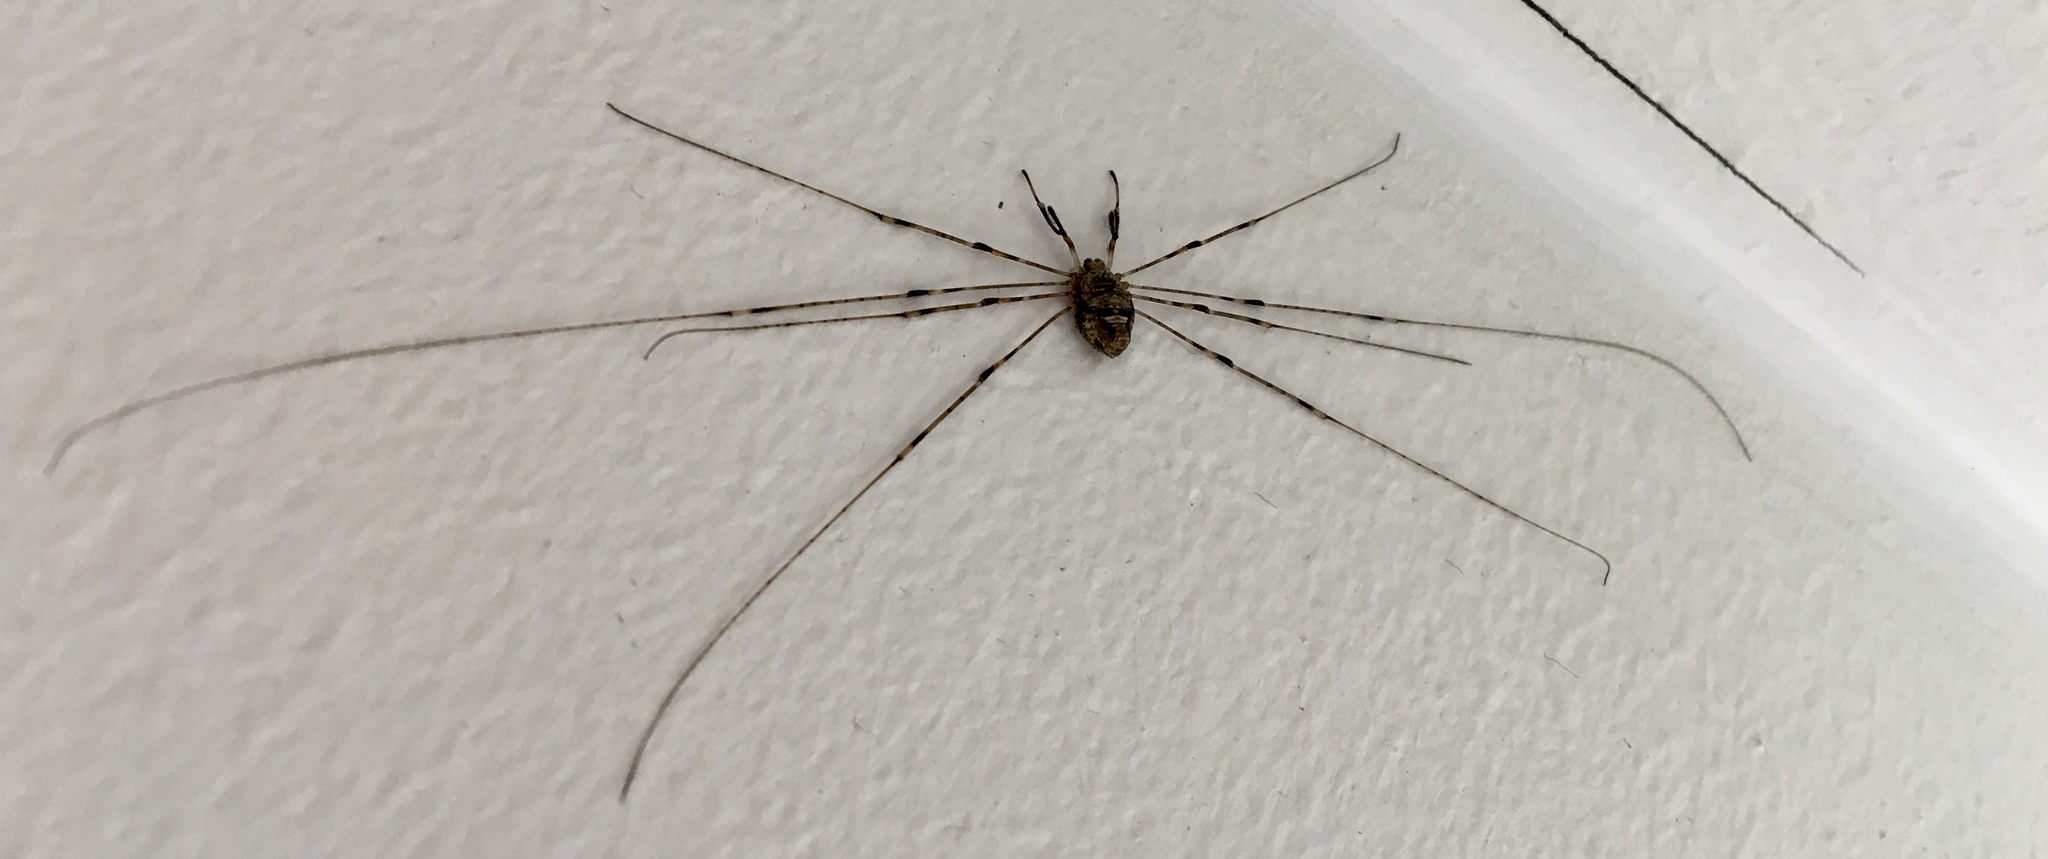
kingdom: Animalia
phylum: Arthropoda
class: Arachnida
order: Opiliones
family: Phalangiidae
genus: Dicranopalpus
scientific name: Dicranopalpus ramosus
